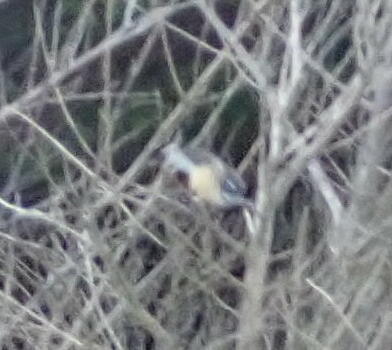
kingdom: Animalia
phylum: Chordata
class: Aves
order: Passeriformes
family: Rhipiduridae
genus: Rhipidura
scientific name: Rhipidura fuliginosa
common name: New zealand fantail
